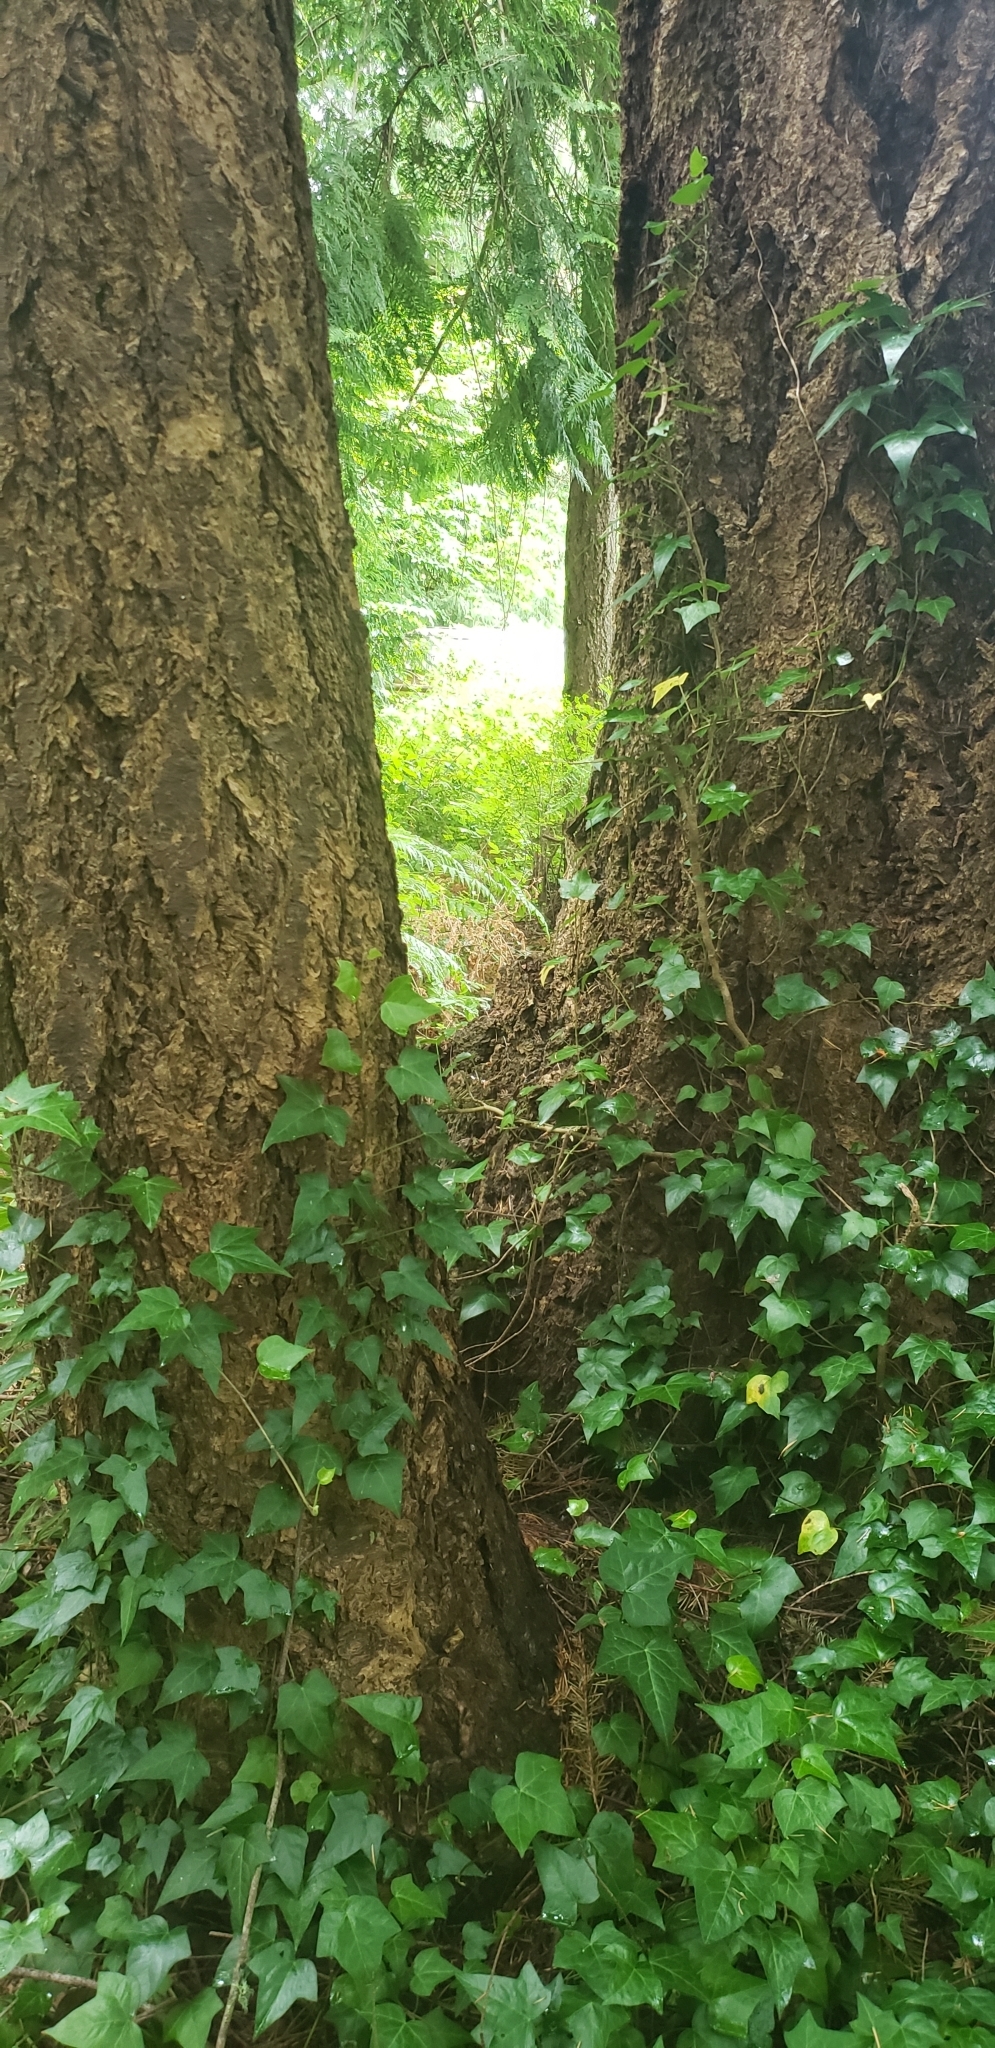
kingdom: Plantae
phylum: Tracheophyta
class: Magnoliopsida
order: Apiales
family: Araliaceae
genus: Hedera
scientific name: Hedera helix
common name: Ivy
